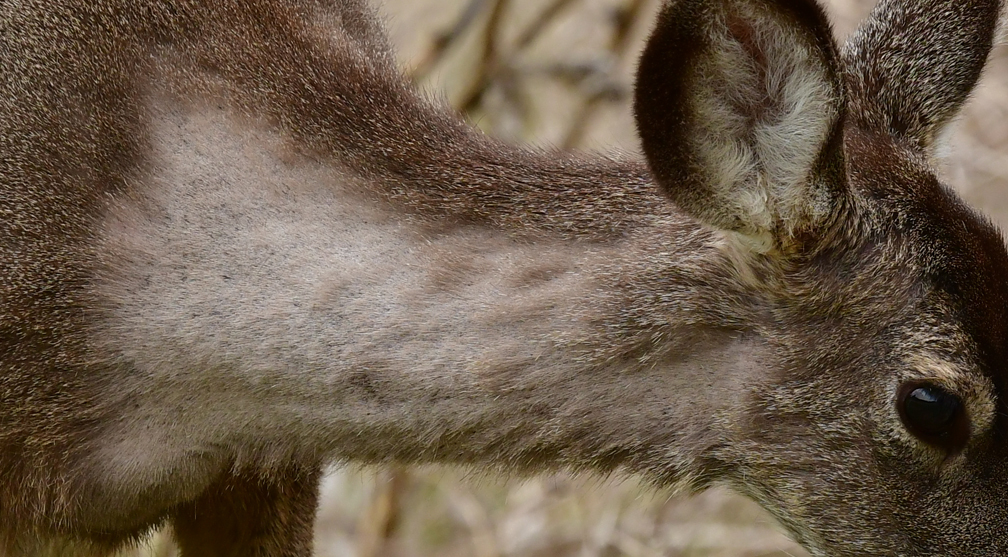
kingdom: Animalia
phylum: Chordata
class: Mammalia
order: Artiodactyla
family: Cervidae
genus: Odocoileus
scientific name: Odocoileus hemionus
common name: Mule deer
